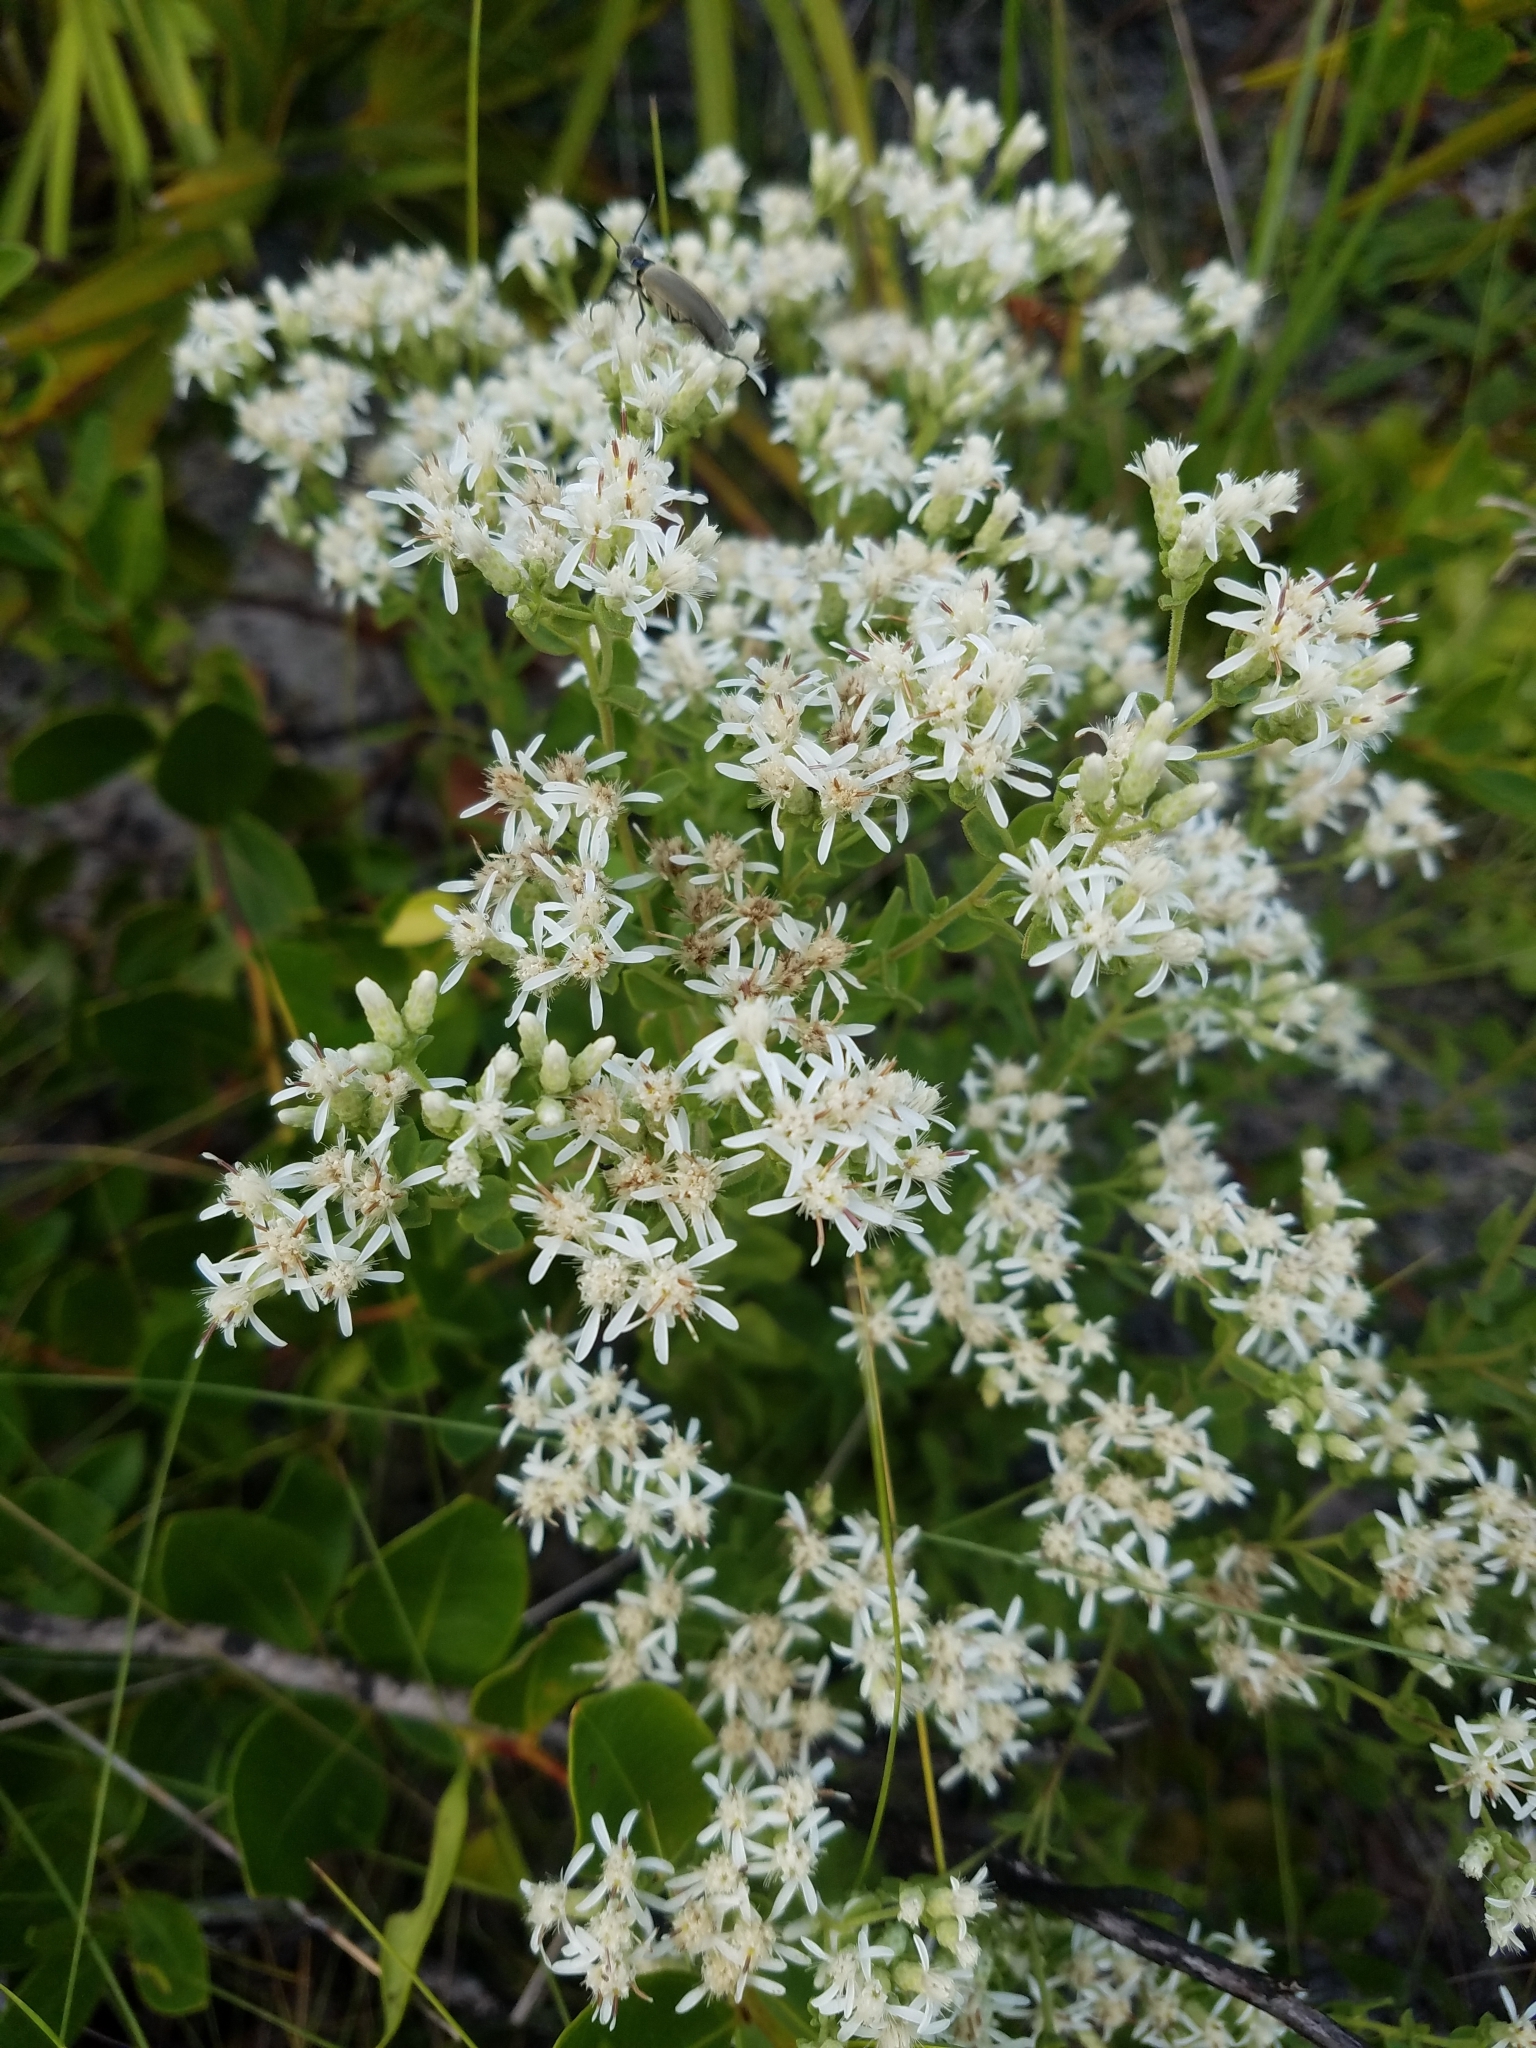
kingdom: Plantae
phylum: Tracheophyta
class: Magnoliopsida
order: Asterales
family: Asteraceae
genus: Sericocarpus
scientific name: Sericocarpus tortifolius
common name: Dixie aster
